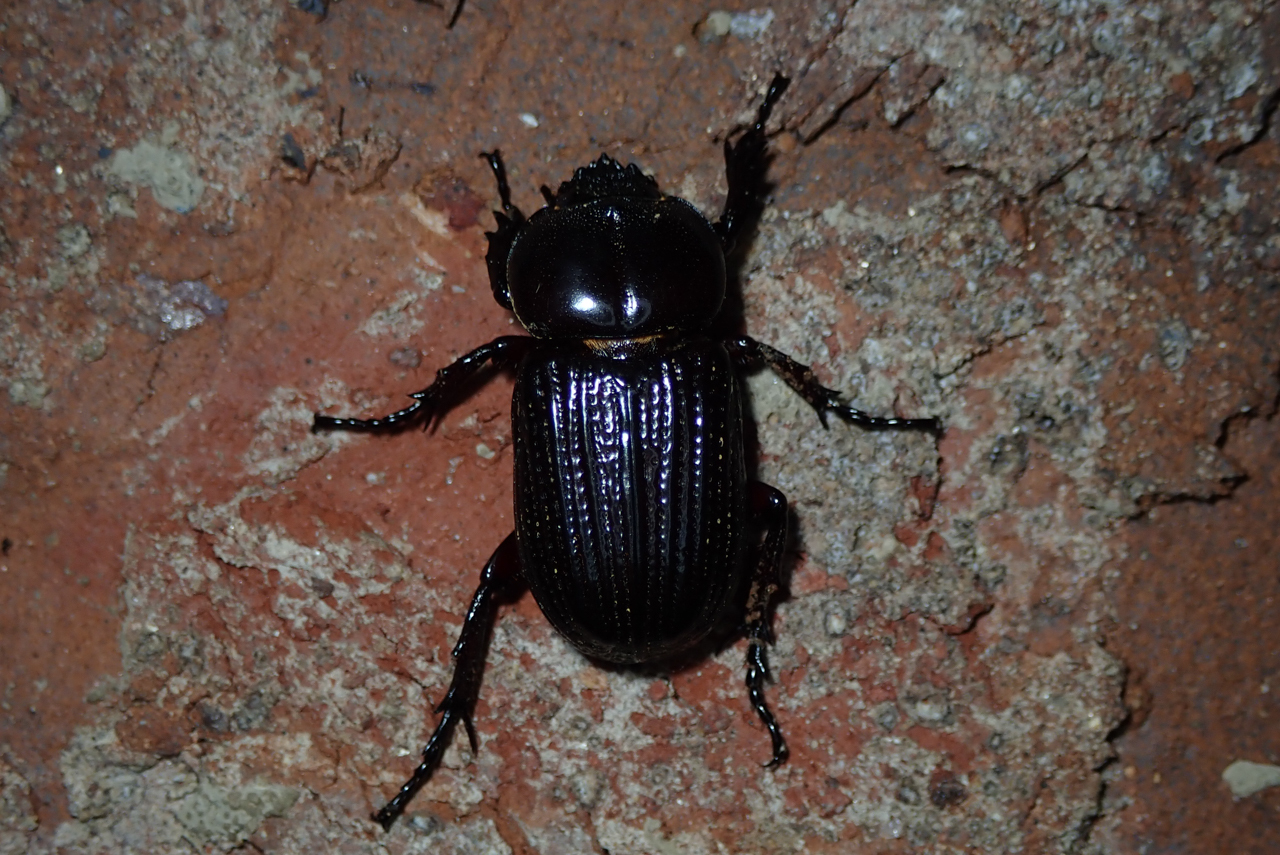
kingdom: Animalia
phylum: Arthropoda
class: Insecta
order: Coleoptera
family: Scarabaeidae
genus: Phileurus
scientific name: Phileurus valgus
